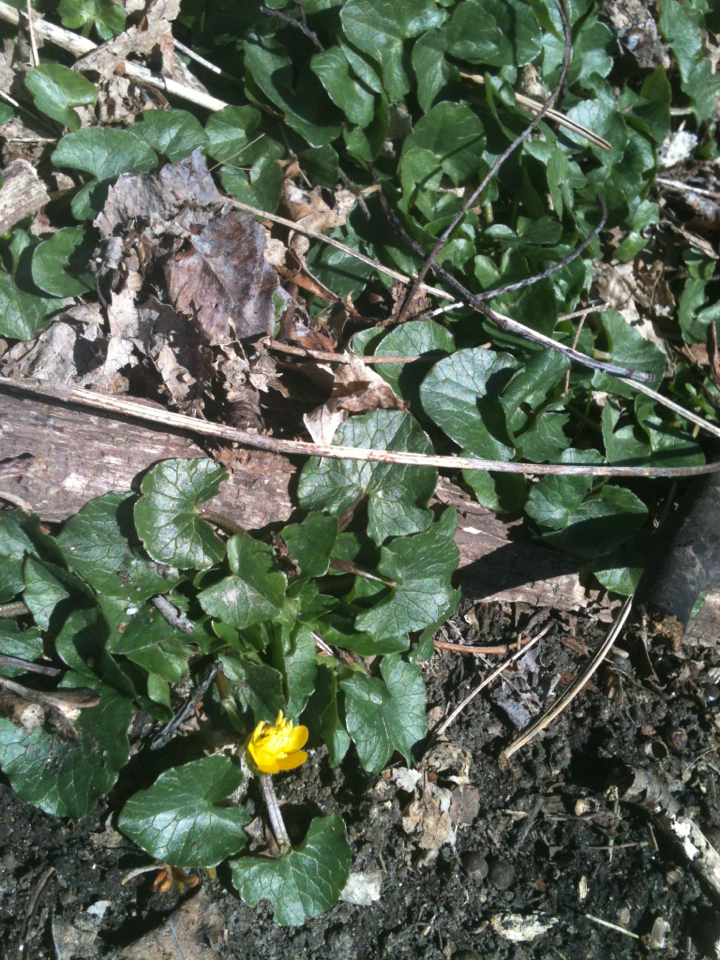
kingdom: Plantae
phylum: Tracheophyta
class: Magnoliopsida
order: Ranunculales
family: Ranunculaceae
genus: Ficaria
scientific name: Ficaria verna
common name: Lesser celandine
